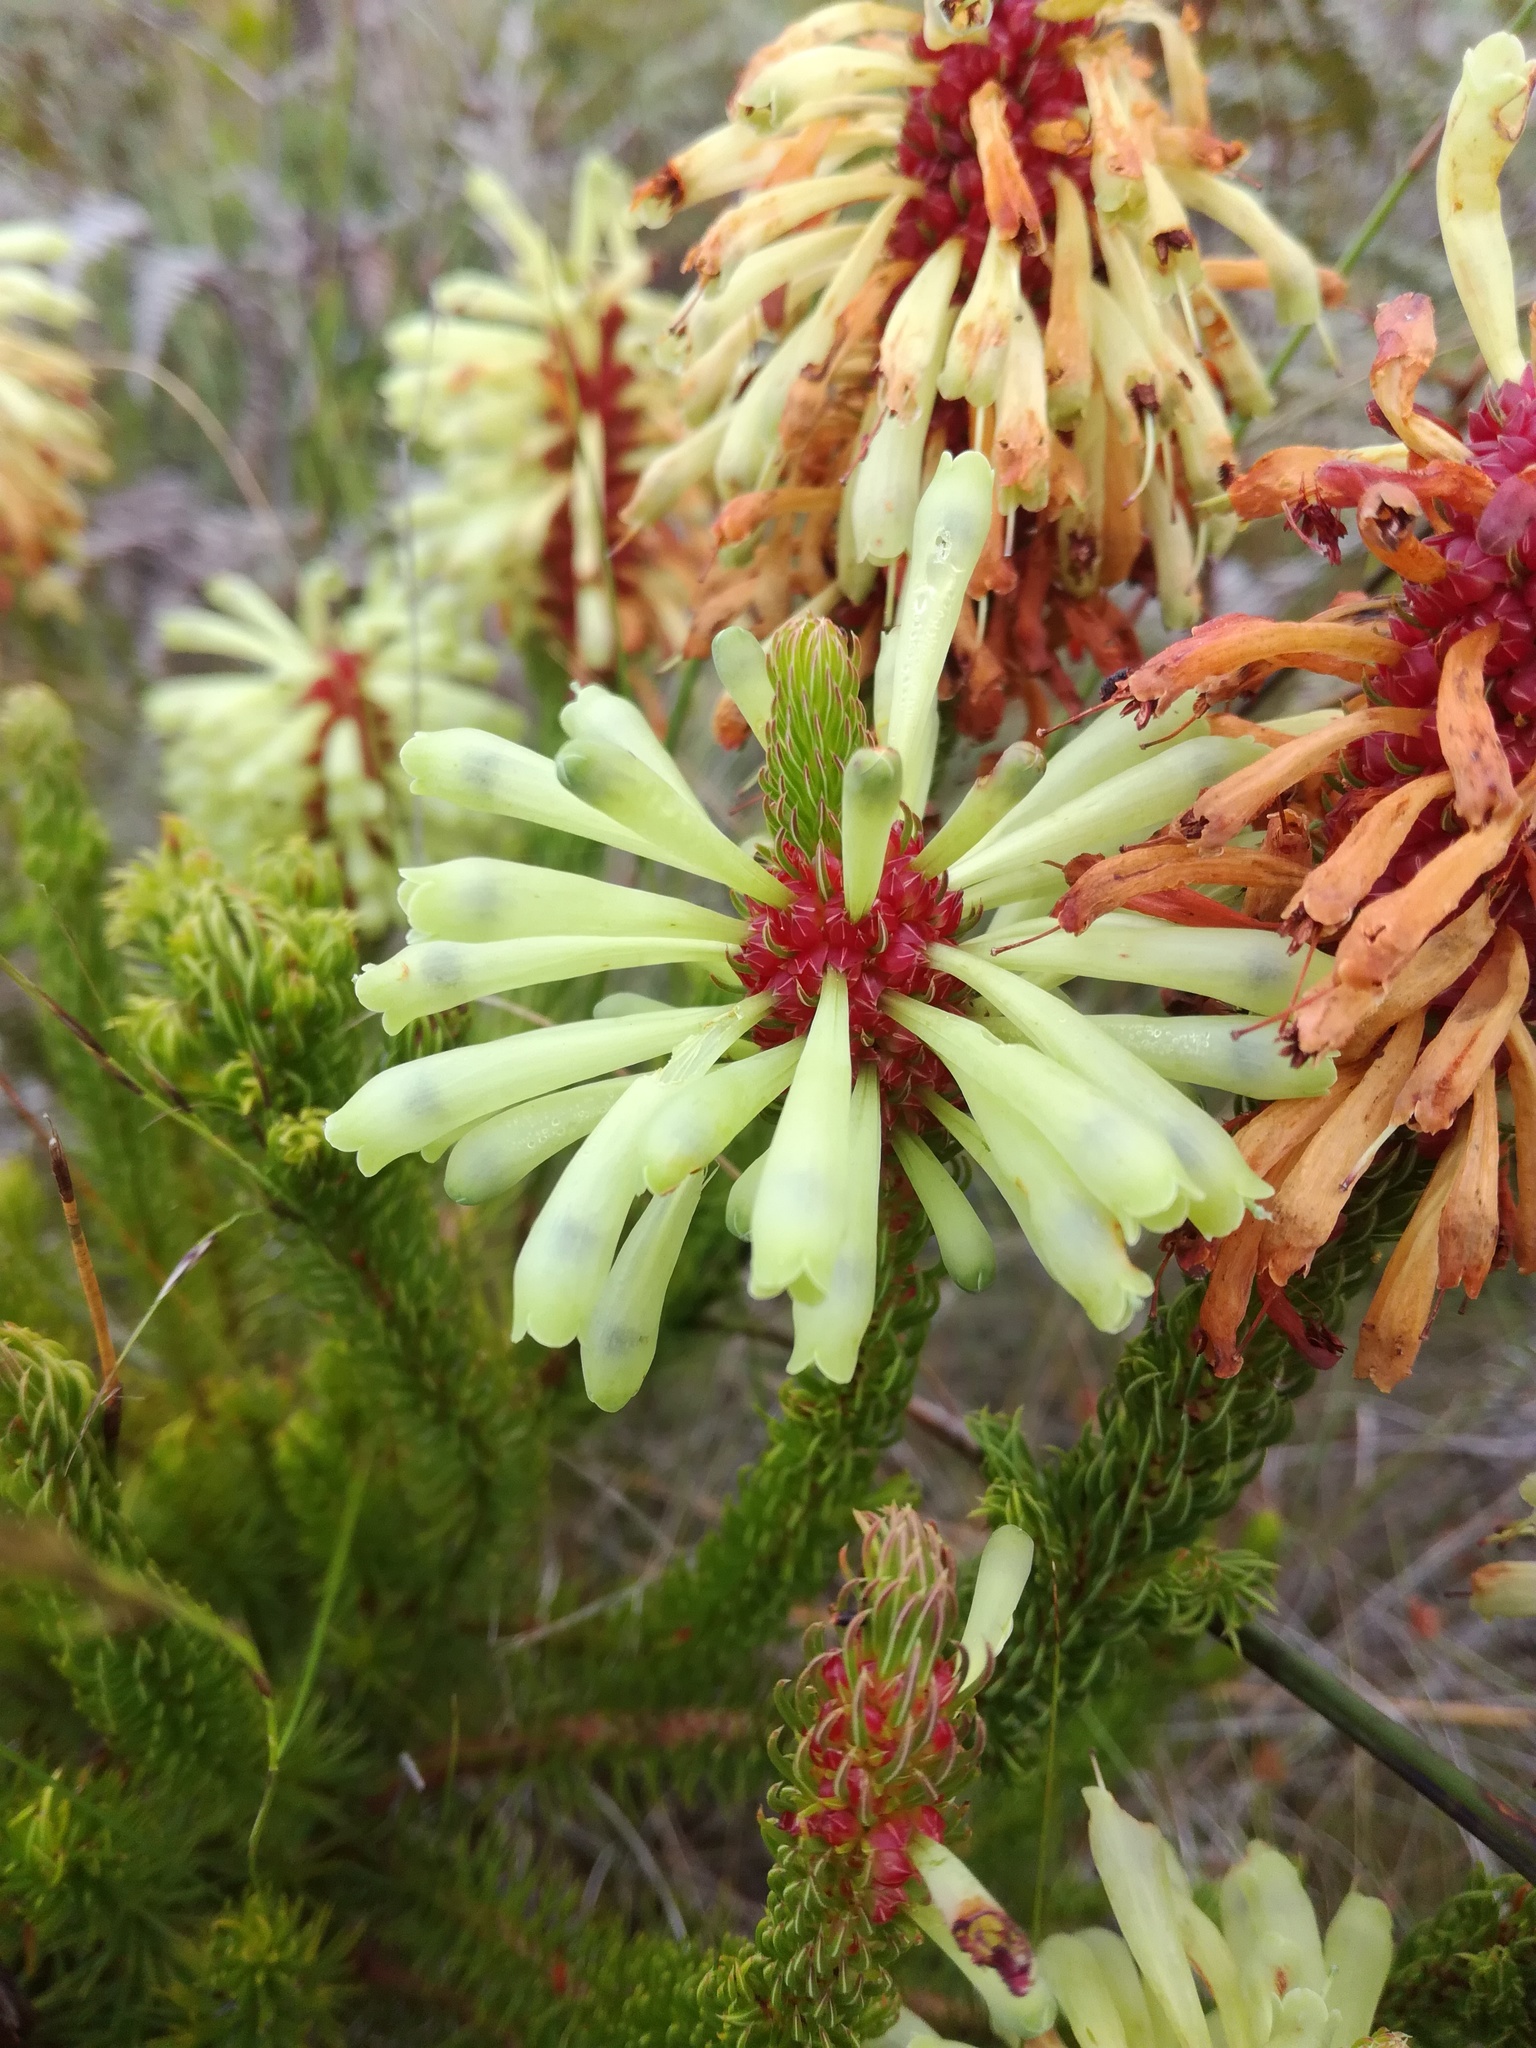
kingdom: Plantae
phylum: Tracheophyta
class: Magnoliopsida
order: Ericales
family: Ericaceae
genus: Erica
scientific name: Erica sessiliflora
